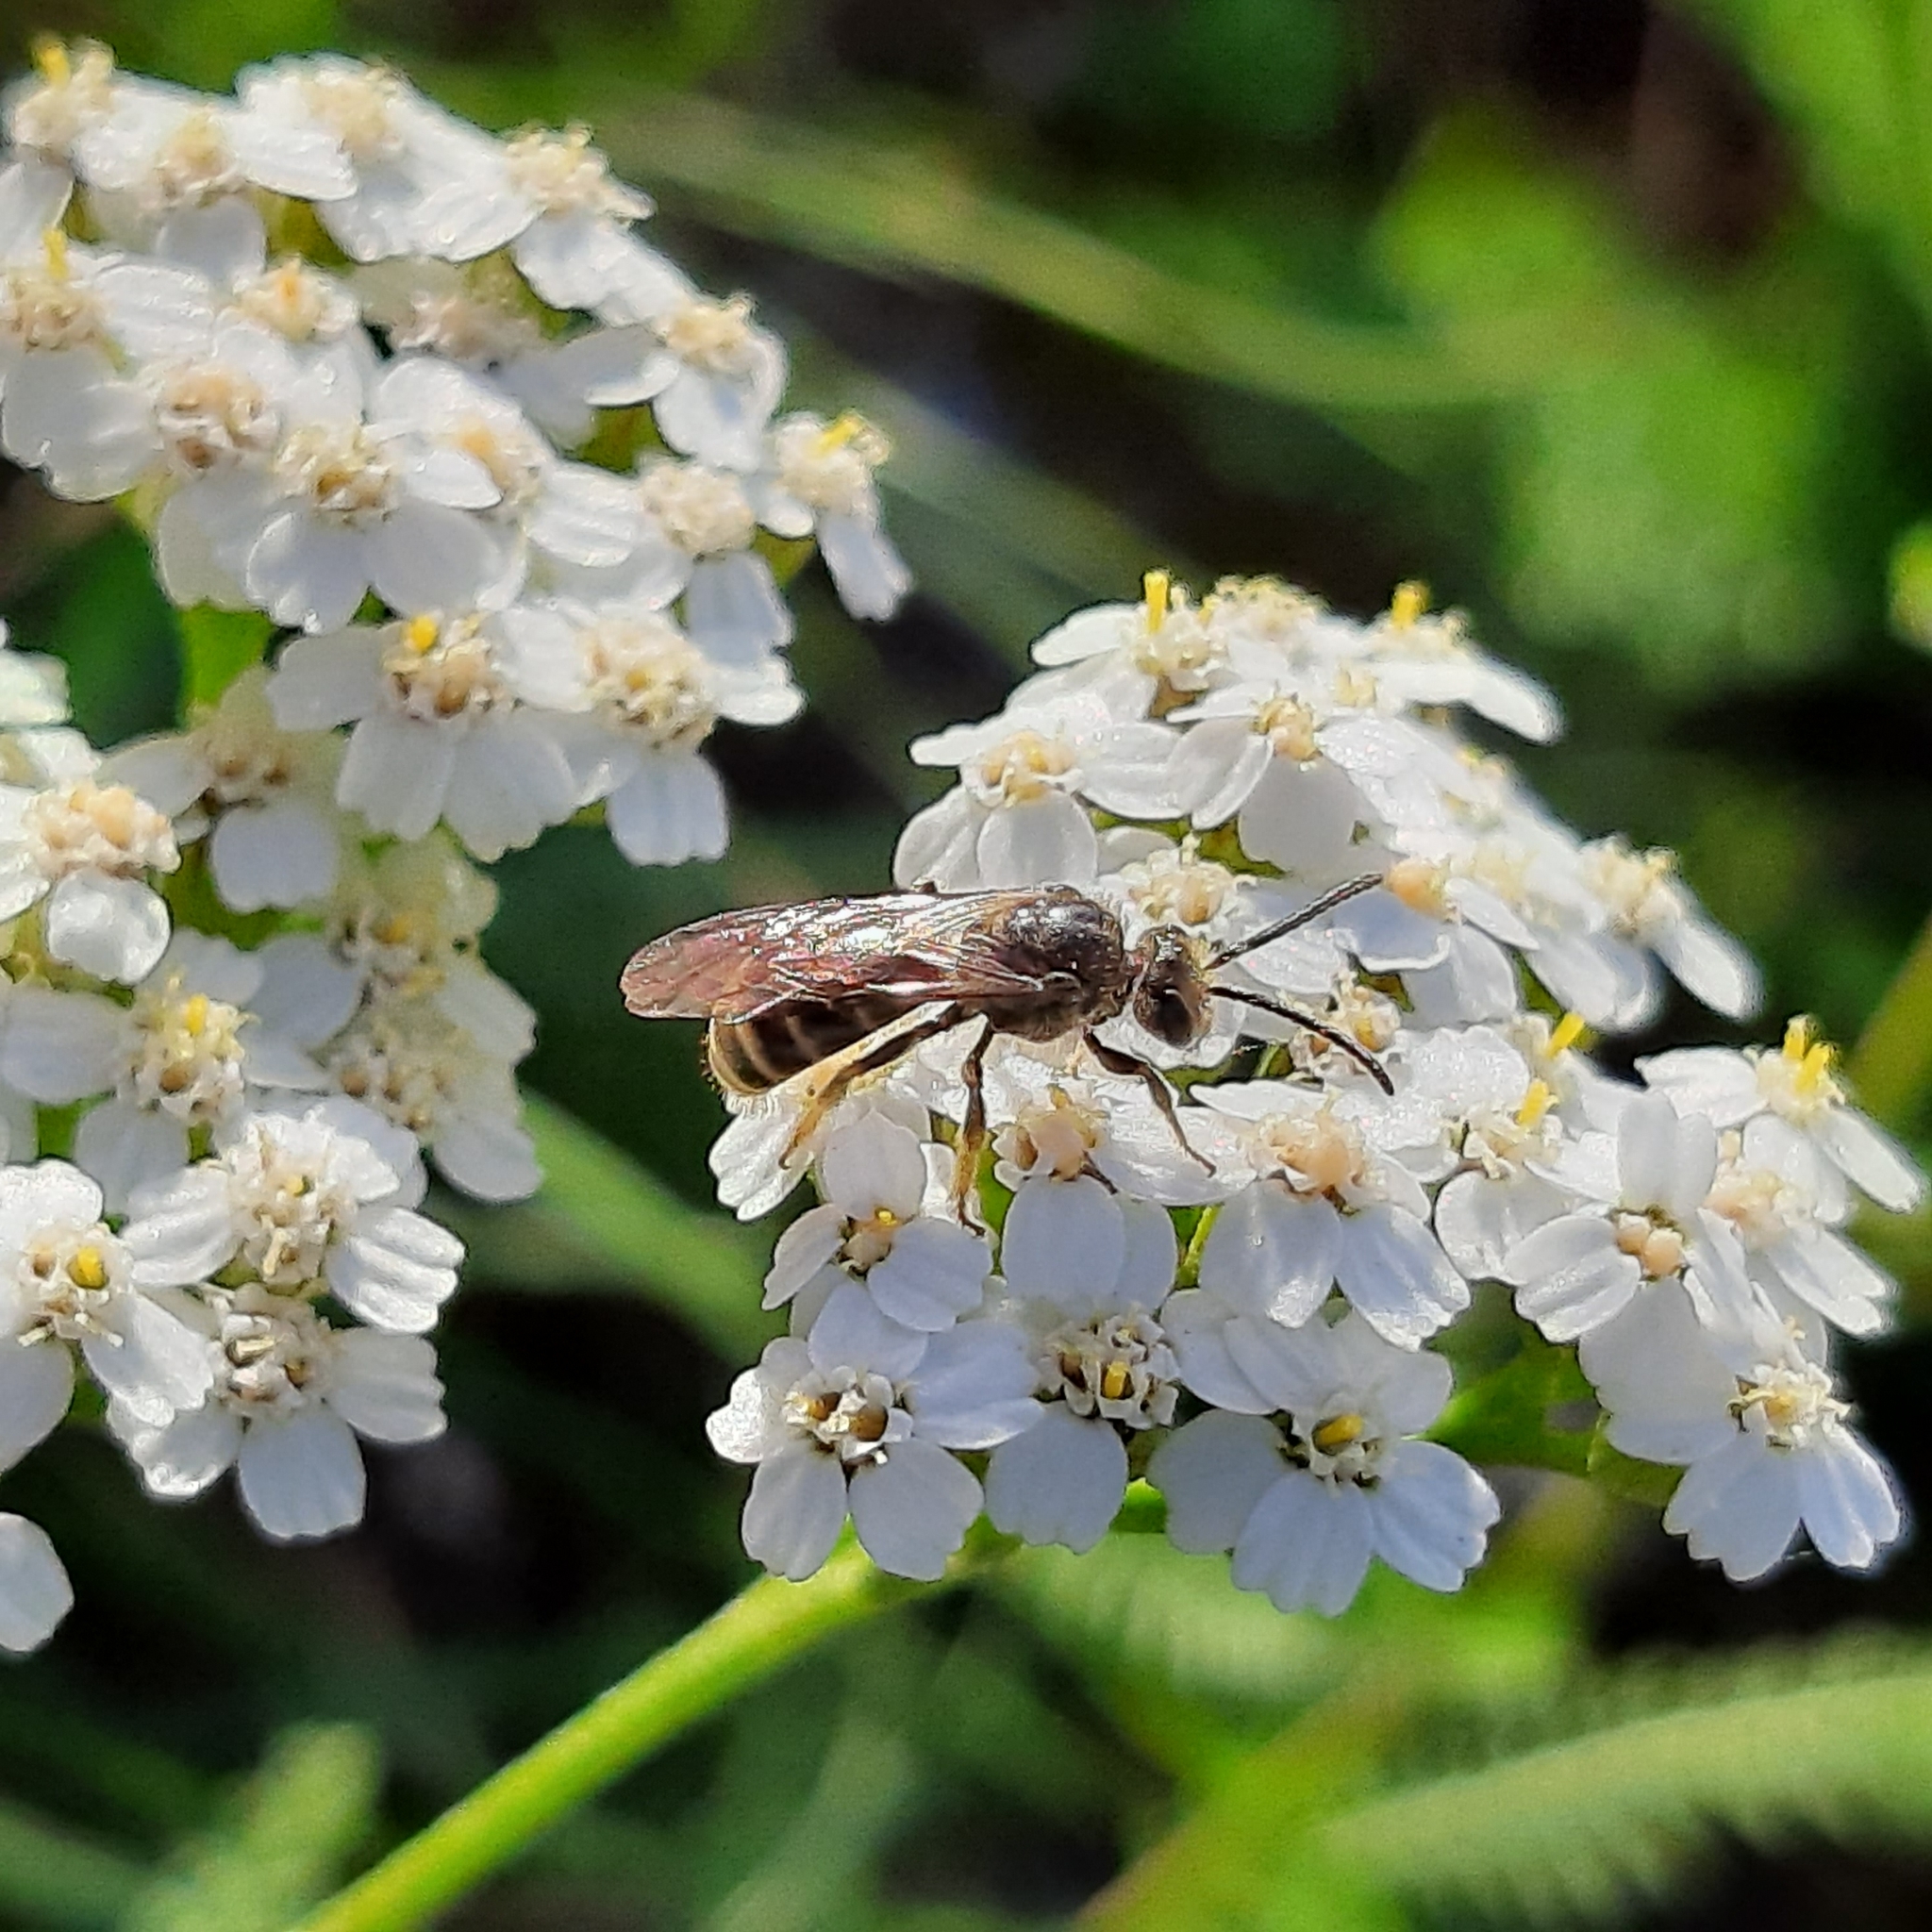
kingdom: Plantae
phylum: Tracheophyta
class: Magnoliopsida
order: Asterales
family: Asteraceae
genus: Achillea
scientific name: Achillea
